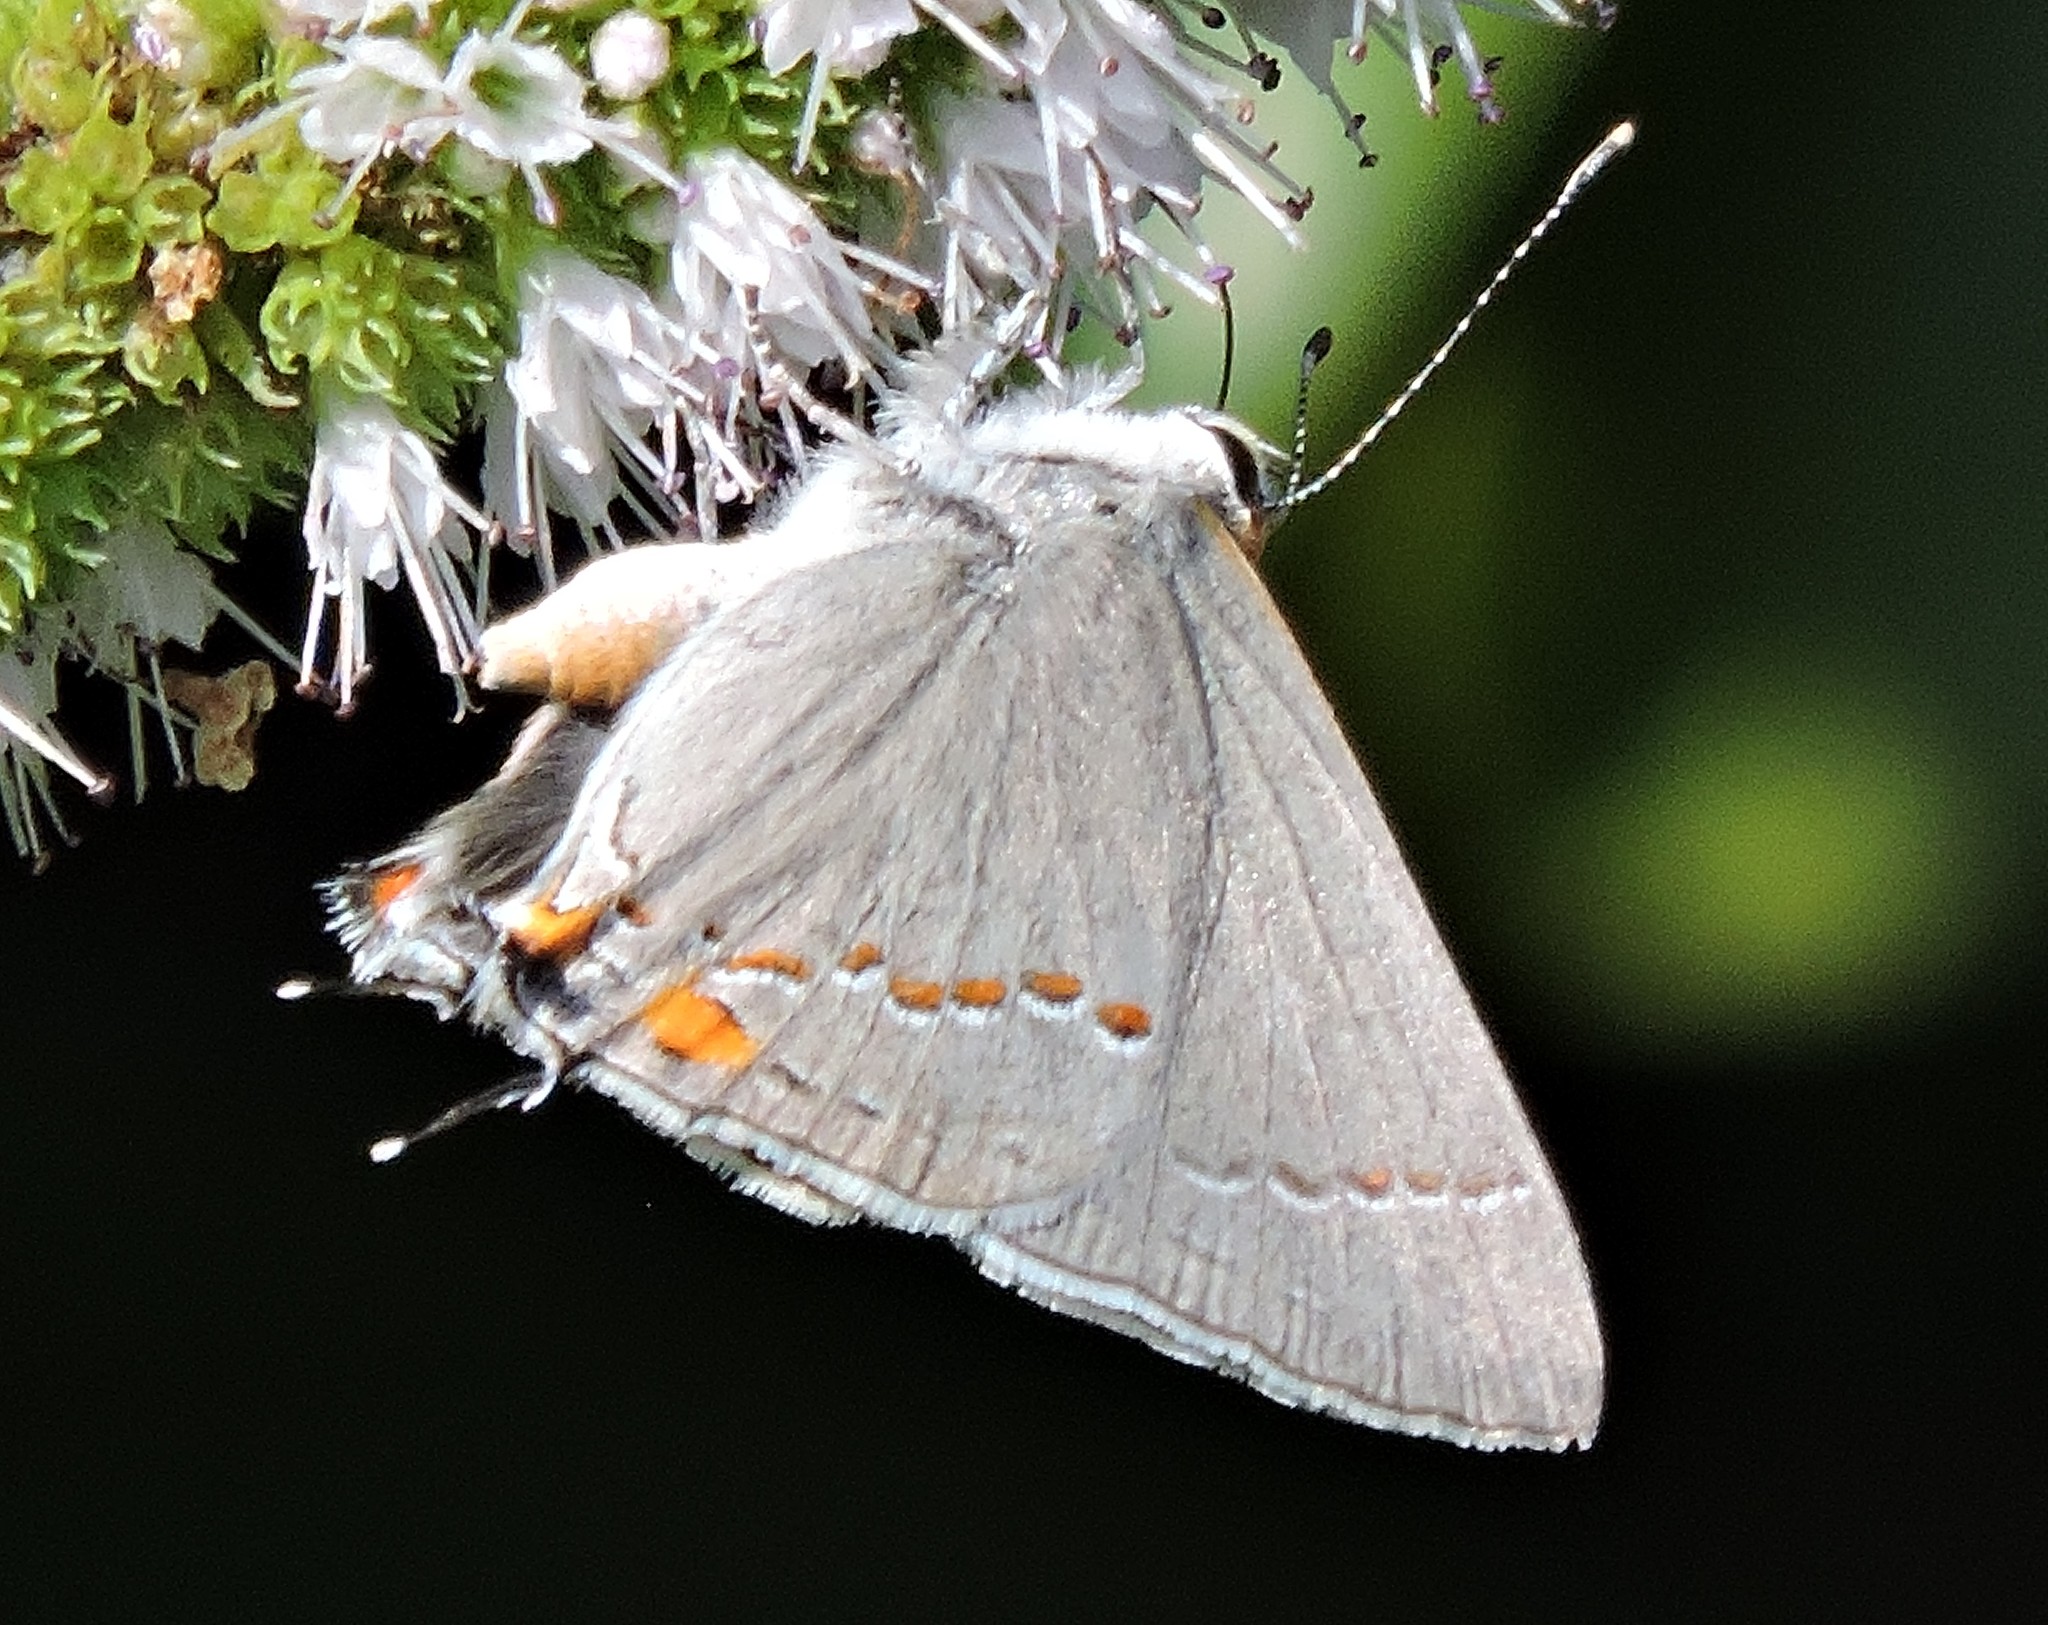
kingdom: Animalia
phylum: Arthropoda
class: Insecta
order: Lepidoptera
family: Lycaenidae
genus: Strymon
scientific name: Strymon melinus
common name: Gray hairstreak
